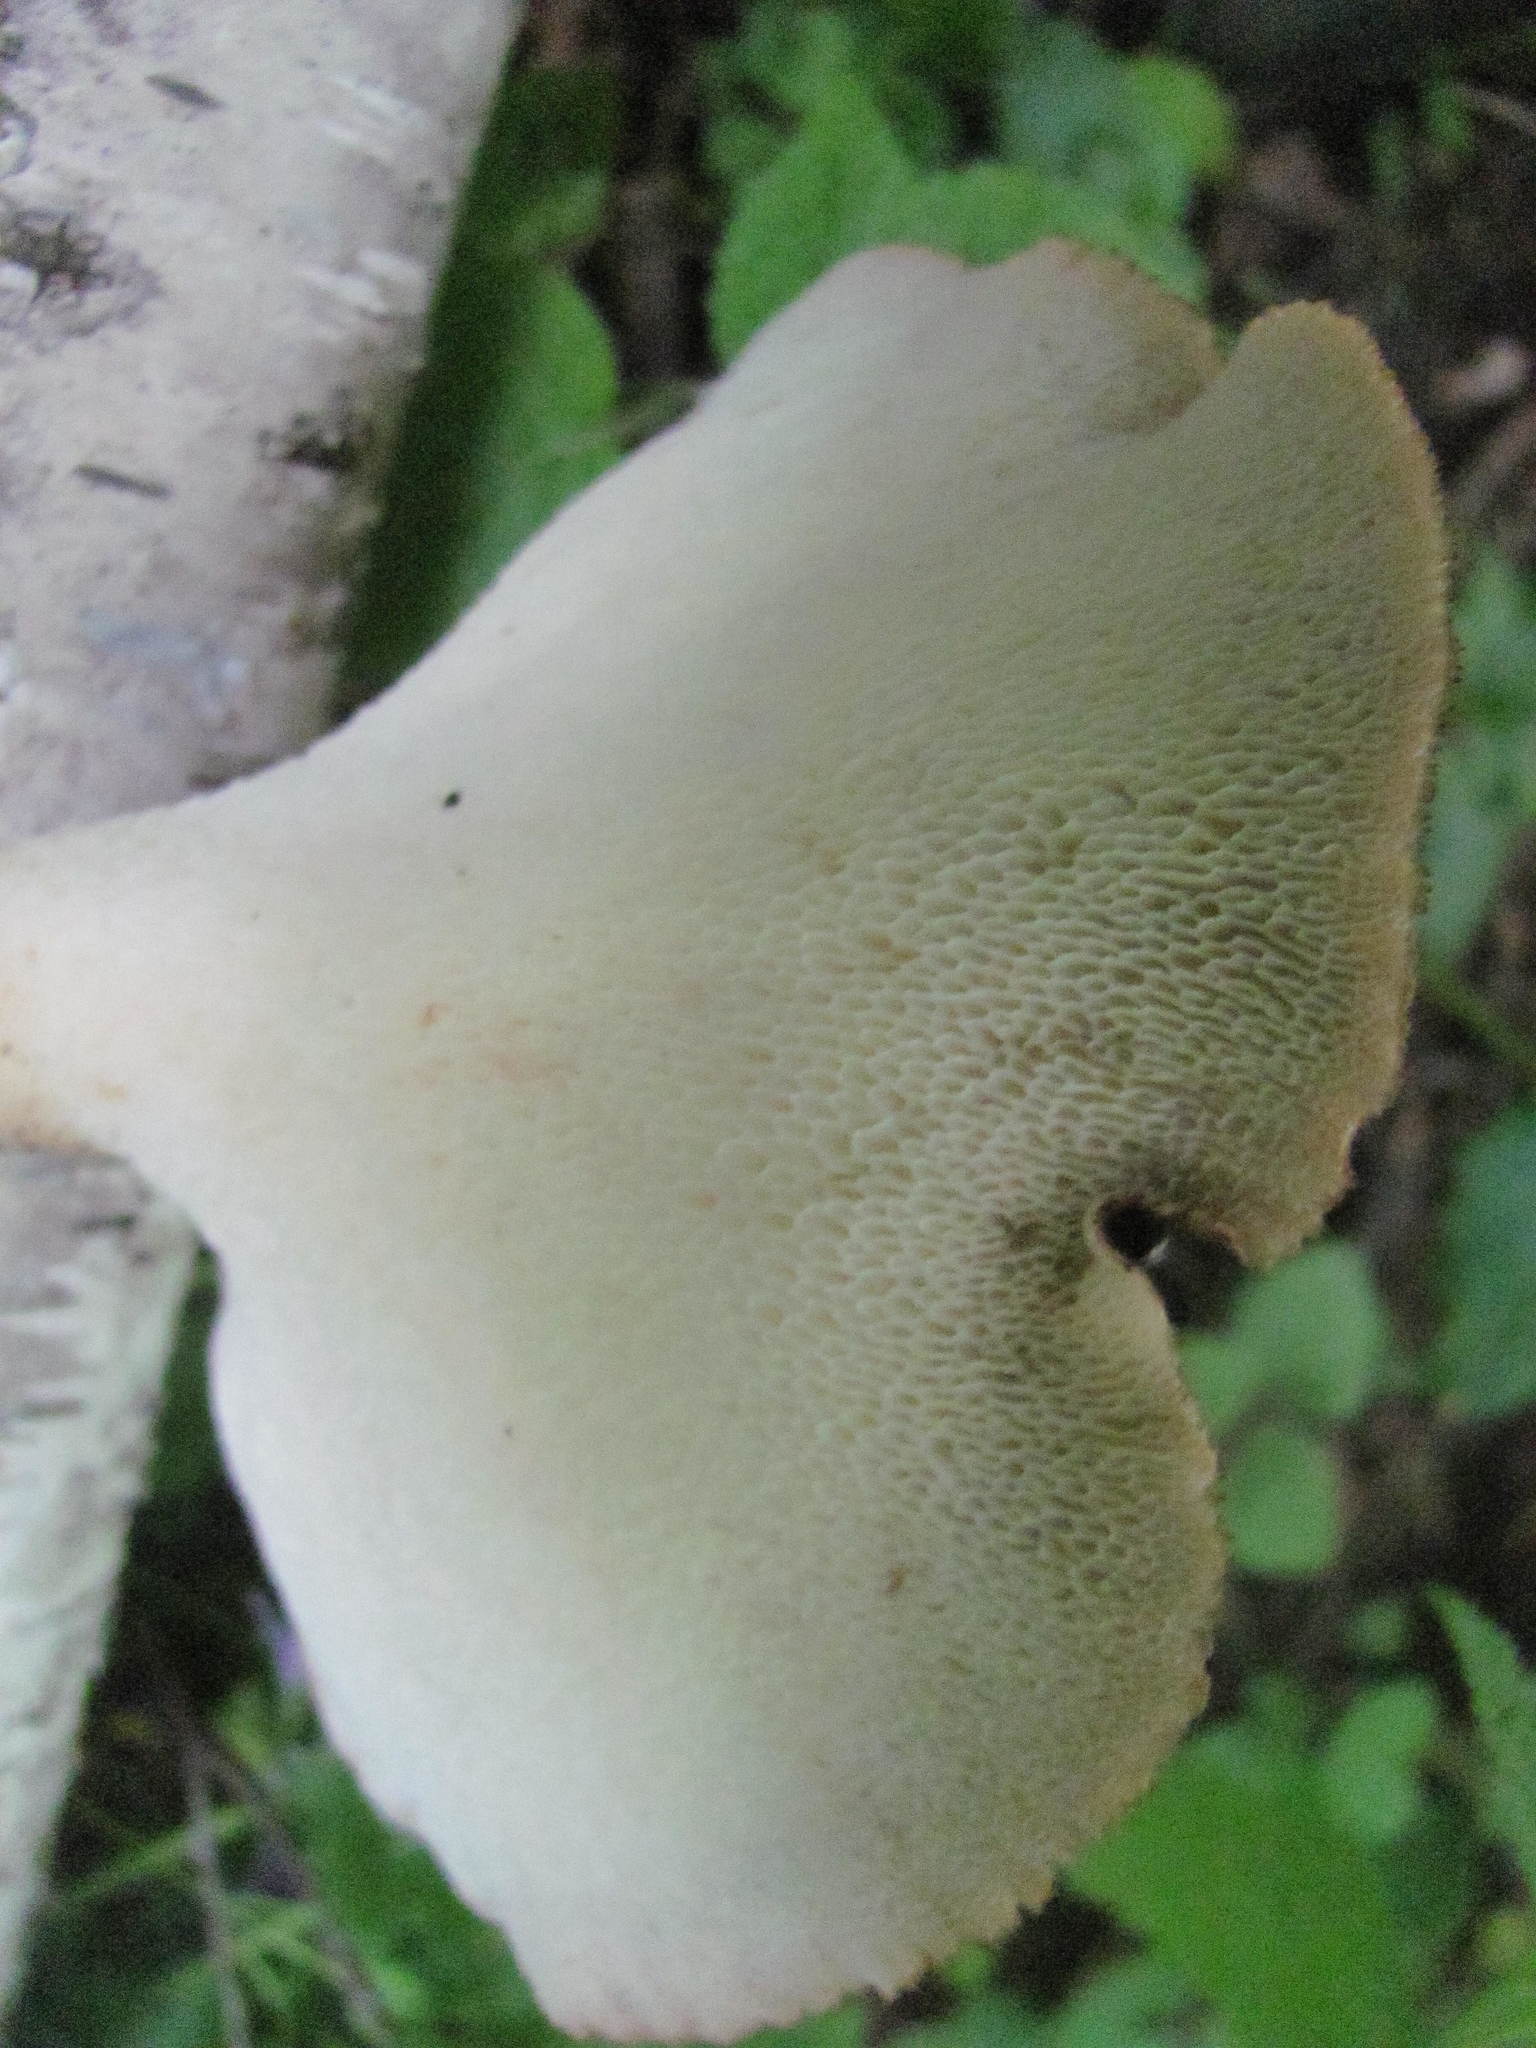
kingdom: Fungi
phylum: Basidiomycota
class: Agaricomycetes
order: Polyporales
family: Polyporaceae
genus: Cerioporus
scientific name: Cerioporus squamosus
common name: Dryad's saddle
